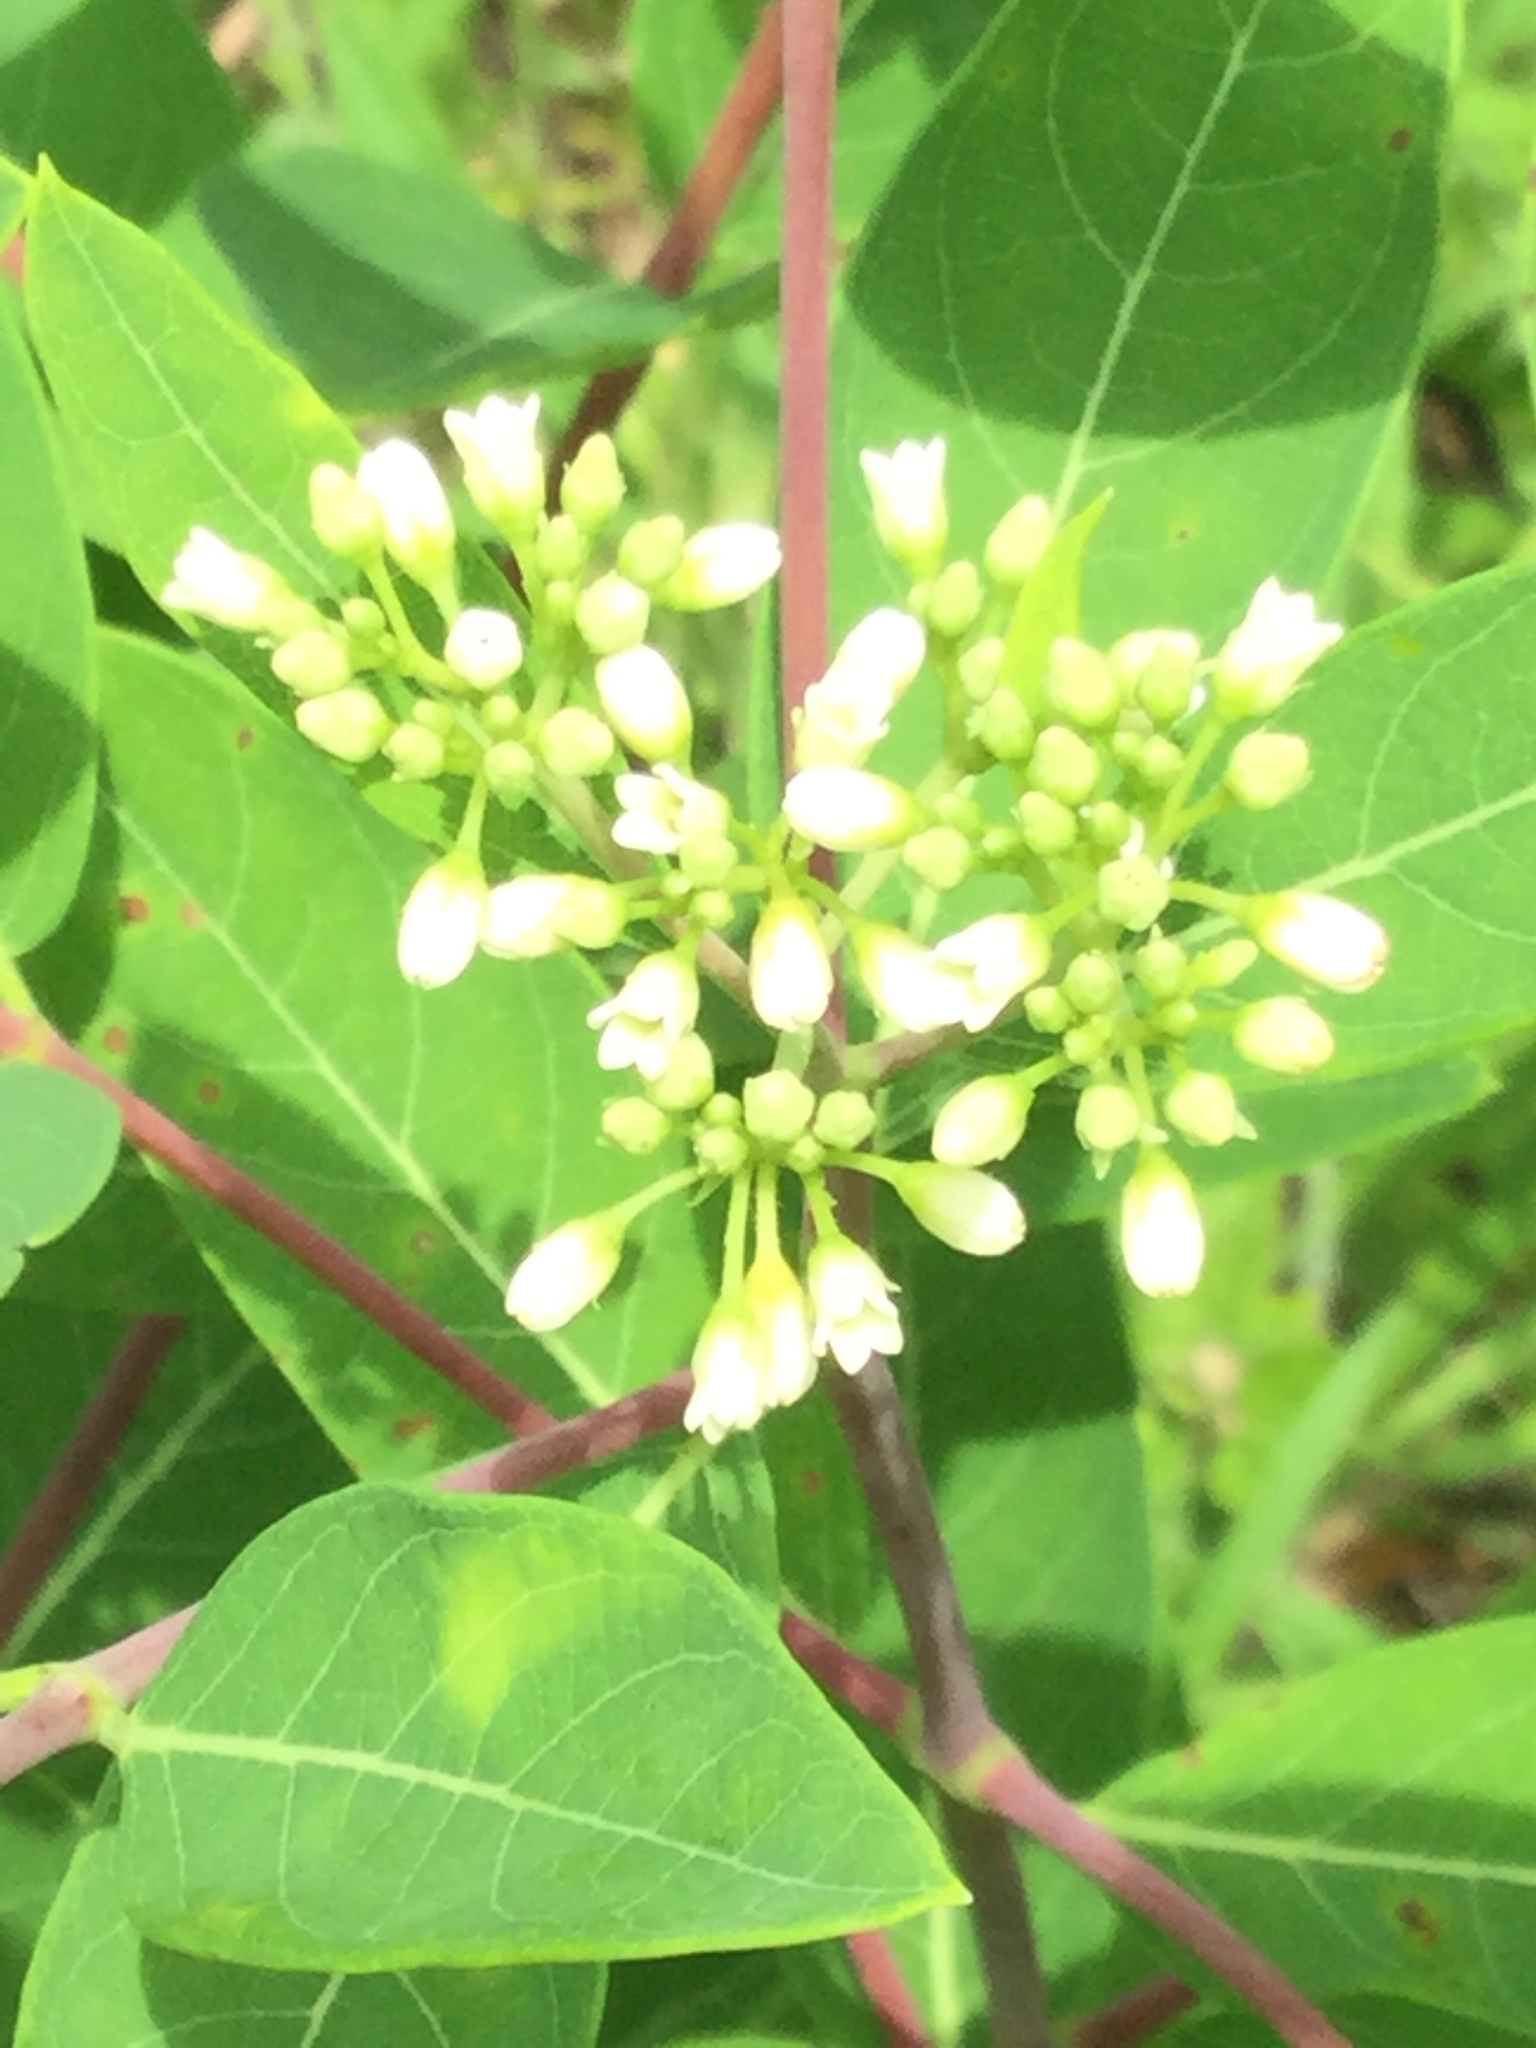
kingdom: Plantae
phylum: Tracheophyta
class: Magnoliopsida
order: Gentianales
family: Apocynaceae
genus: Apocynum
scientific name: Apocynum cannabinum
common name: Hemp dogbane
